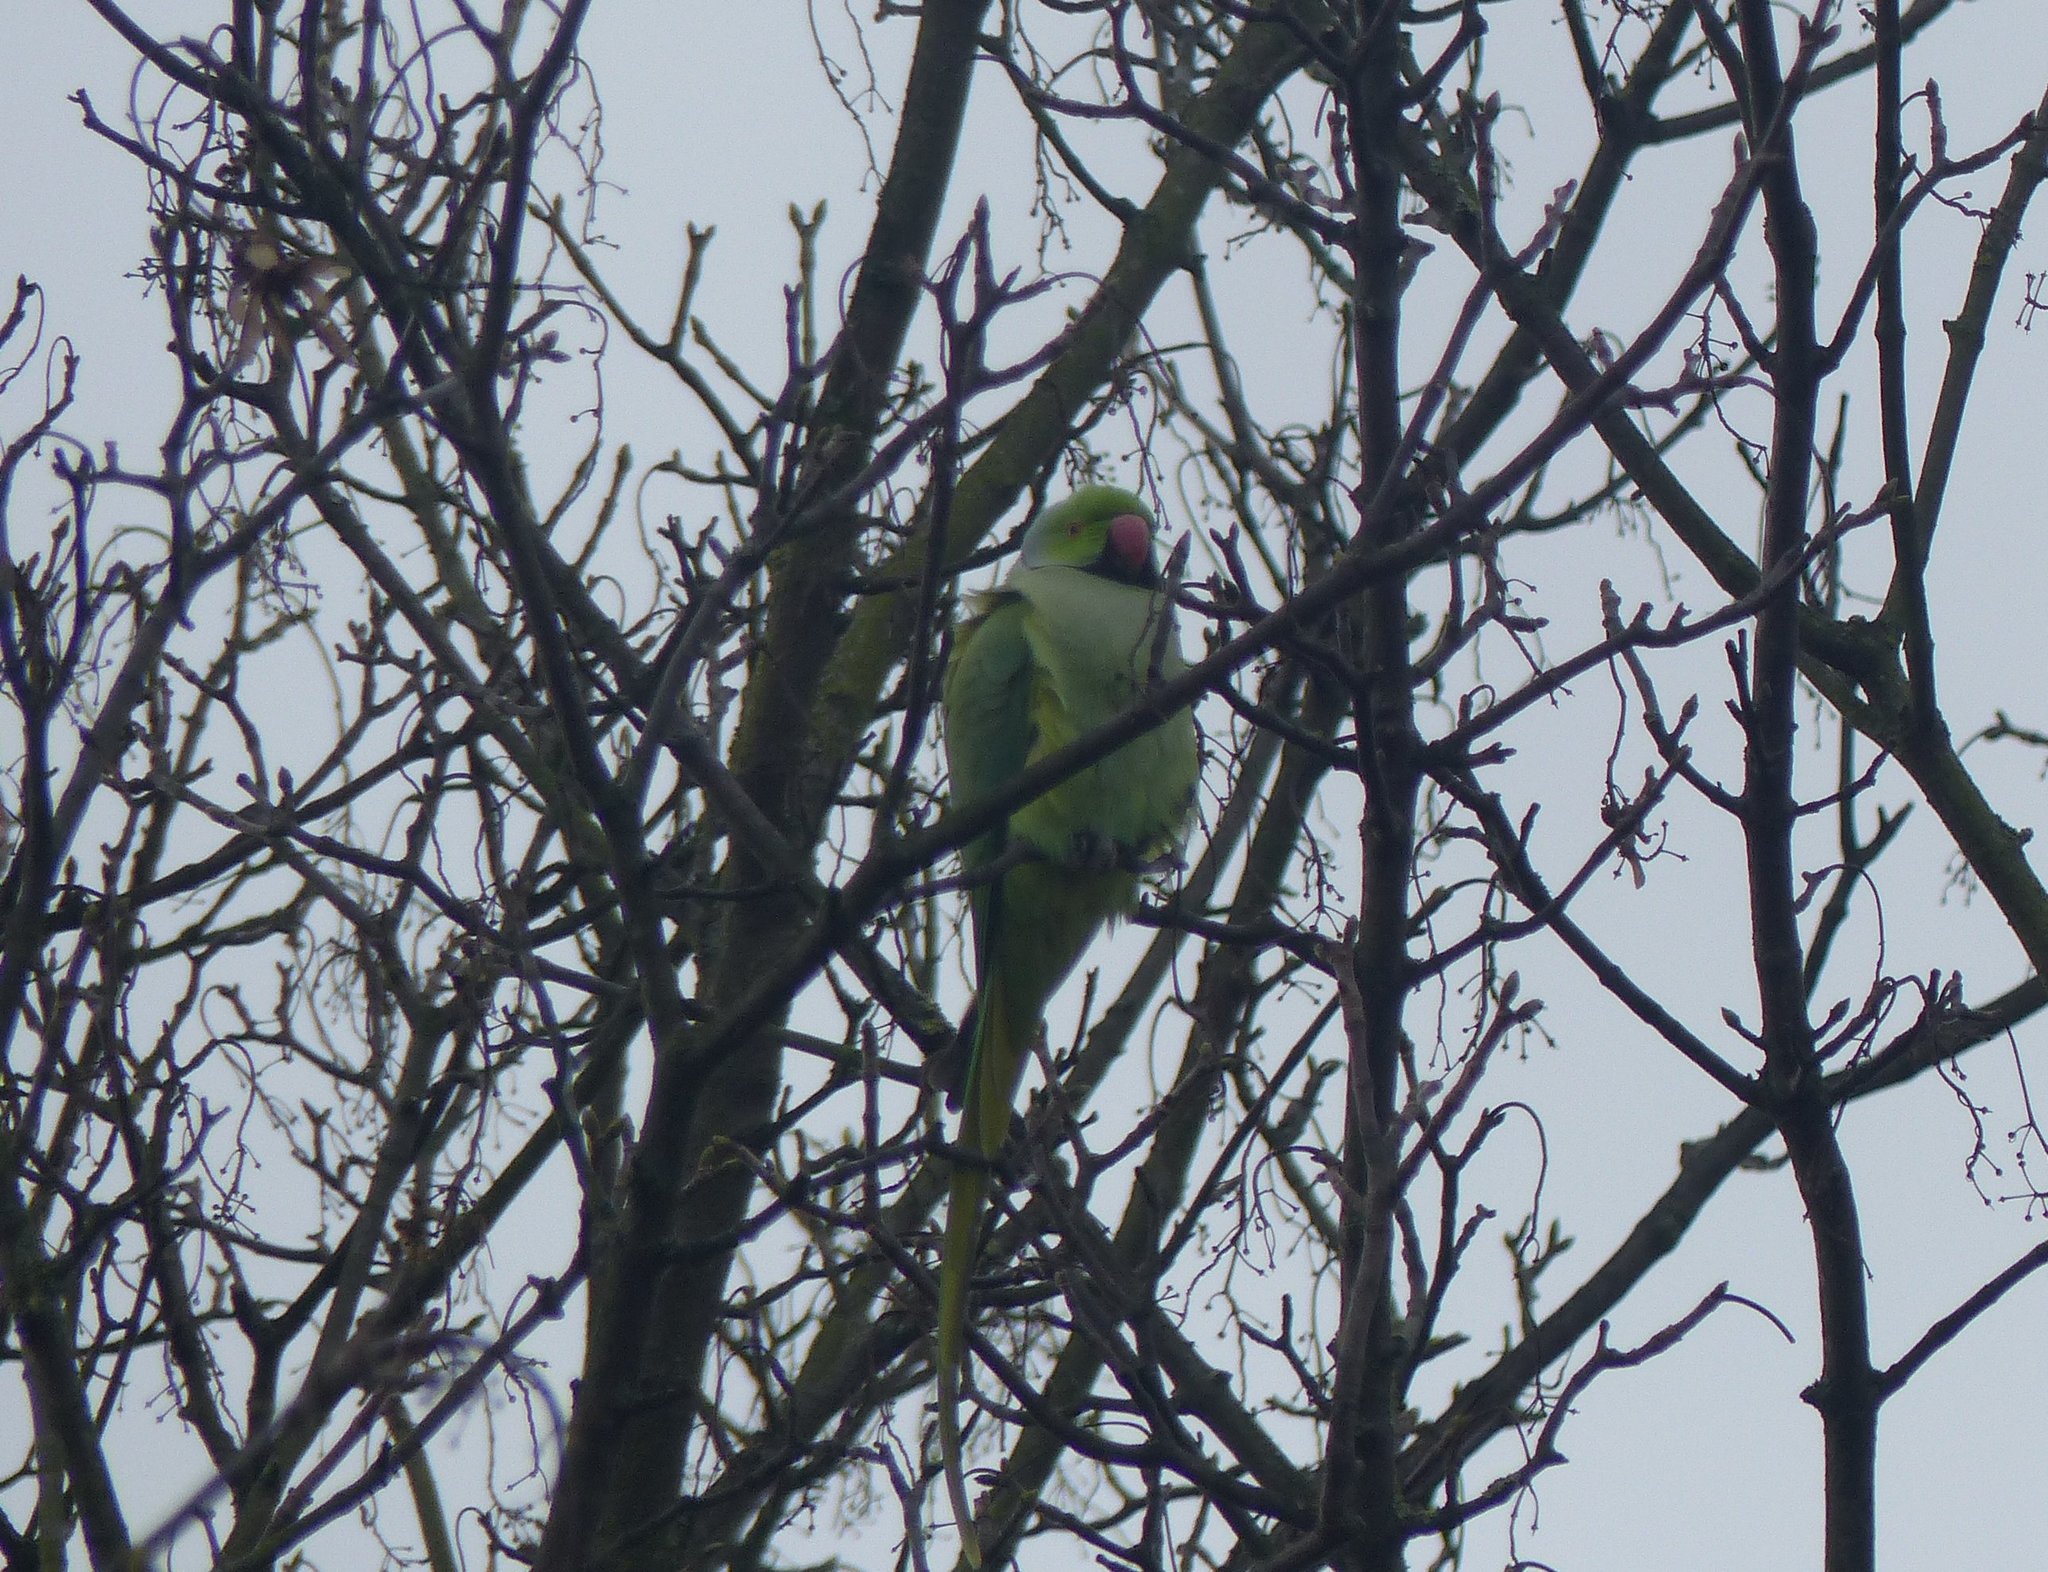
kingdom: Animalia
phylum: Chordata
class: Aves
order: Psittaciformes
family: Psittacidae
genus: Psittacula
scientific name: Psittacula krameri
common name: Rose-ringed parakeet
